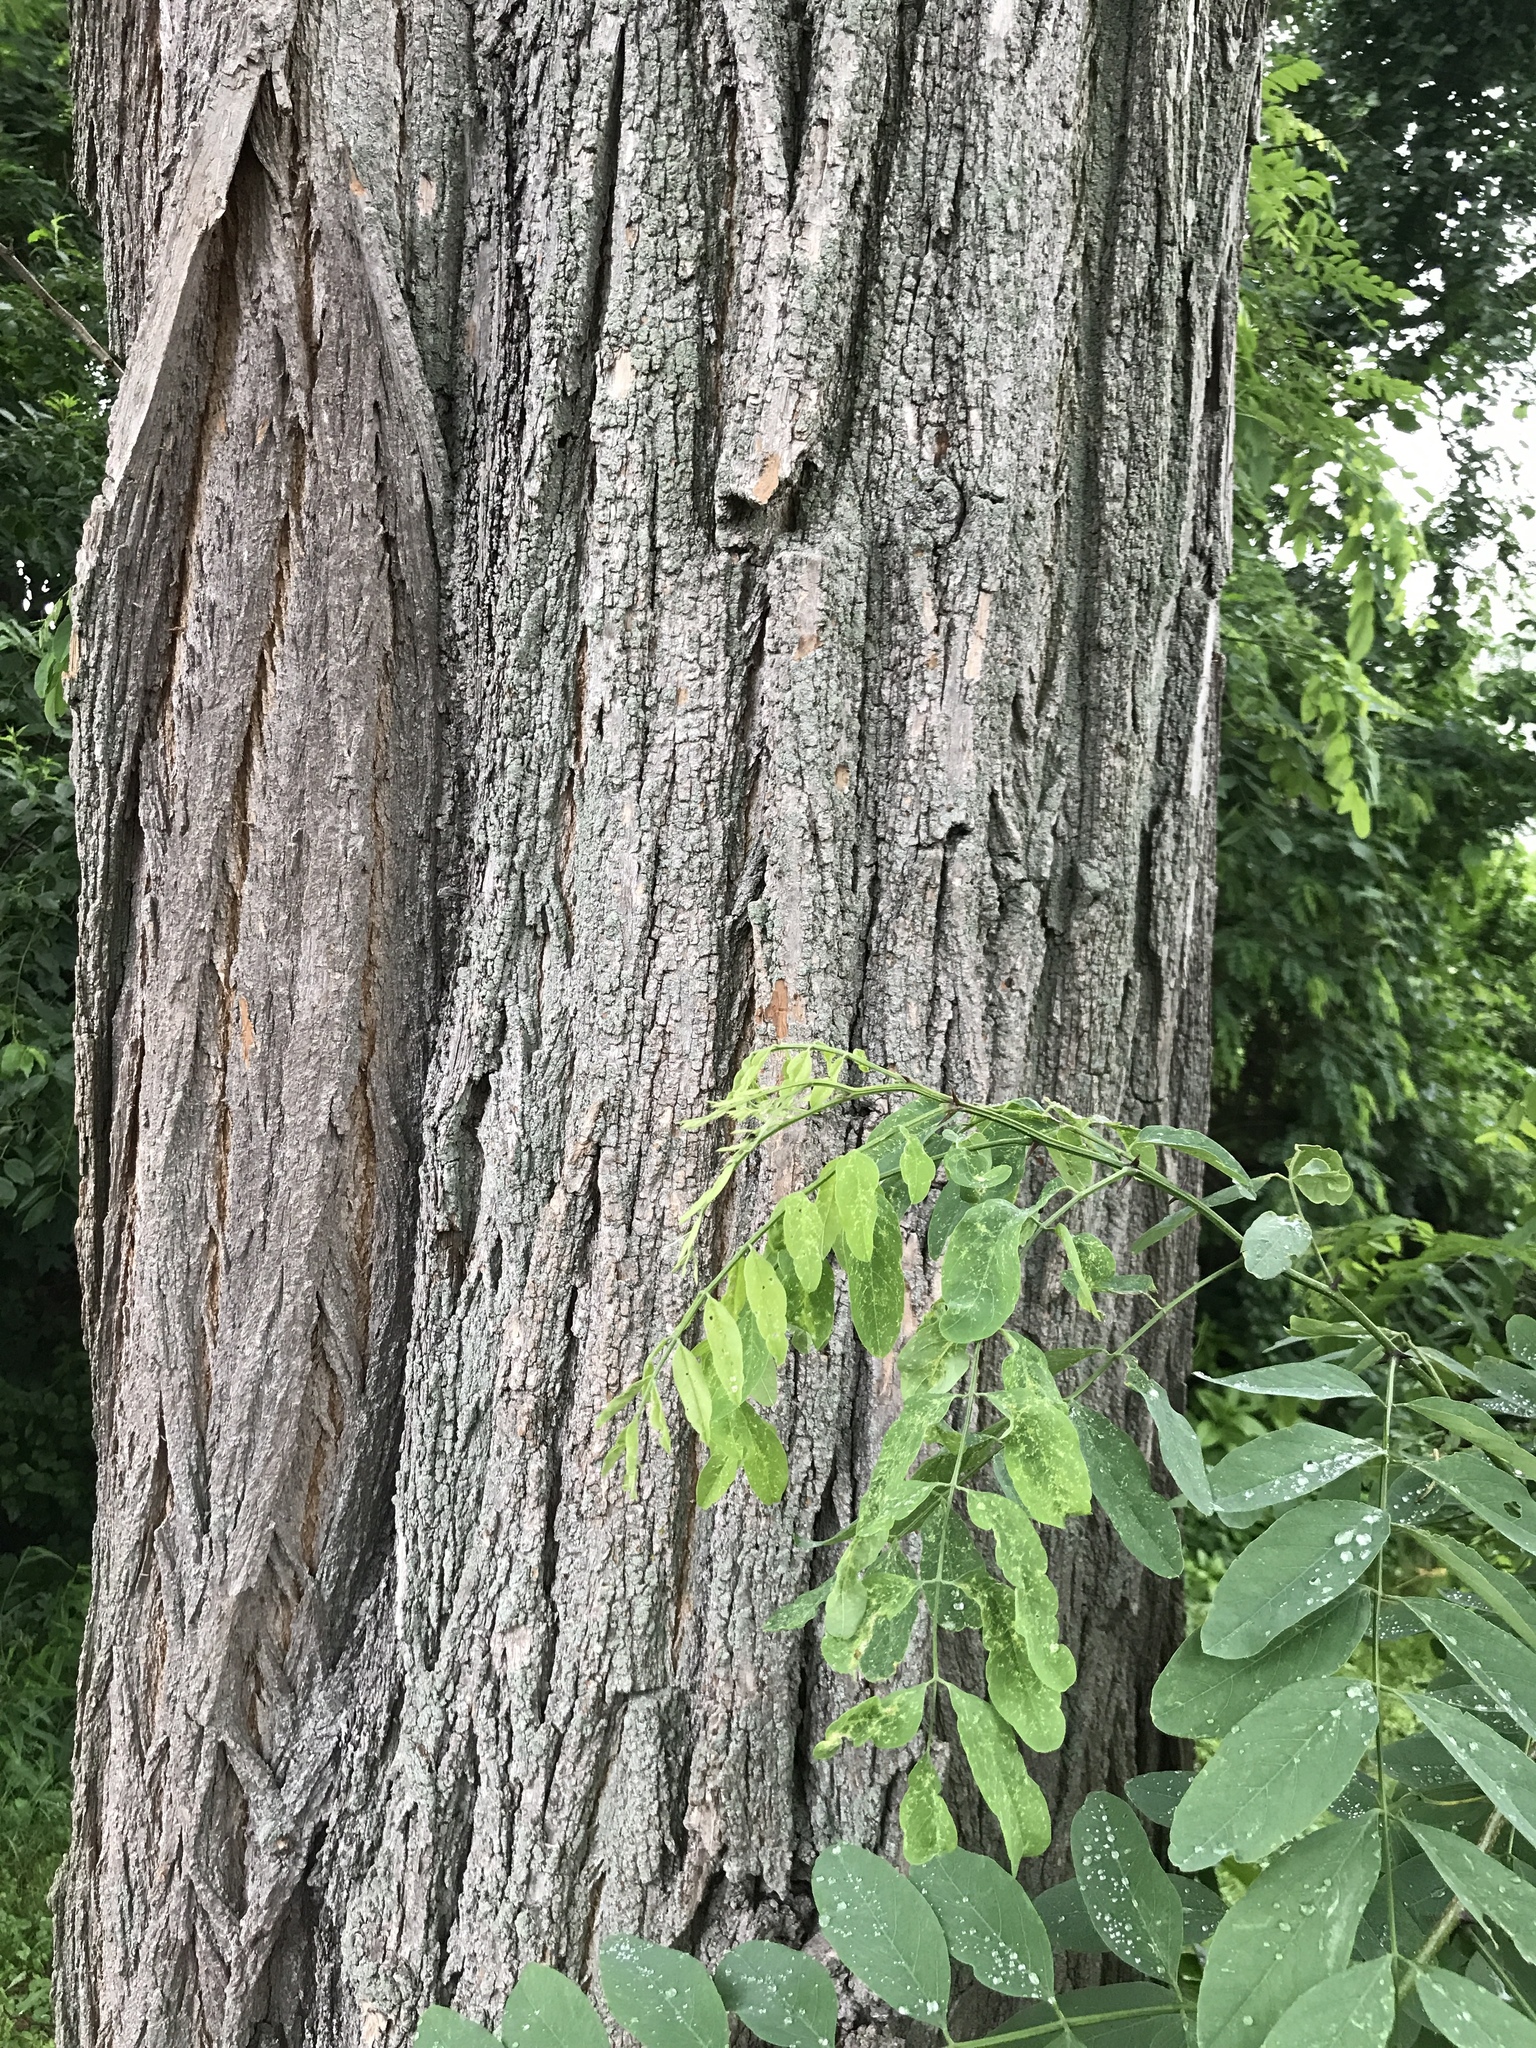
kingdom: Plantae
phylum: Tracheophyta
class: Magnoliopsida
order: Fabales
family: Fabaceae
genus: Robinia
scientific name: Robinia pseudoacacia
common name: Black locust
